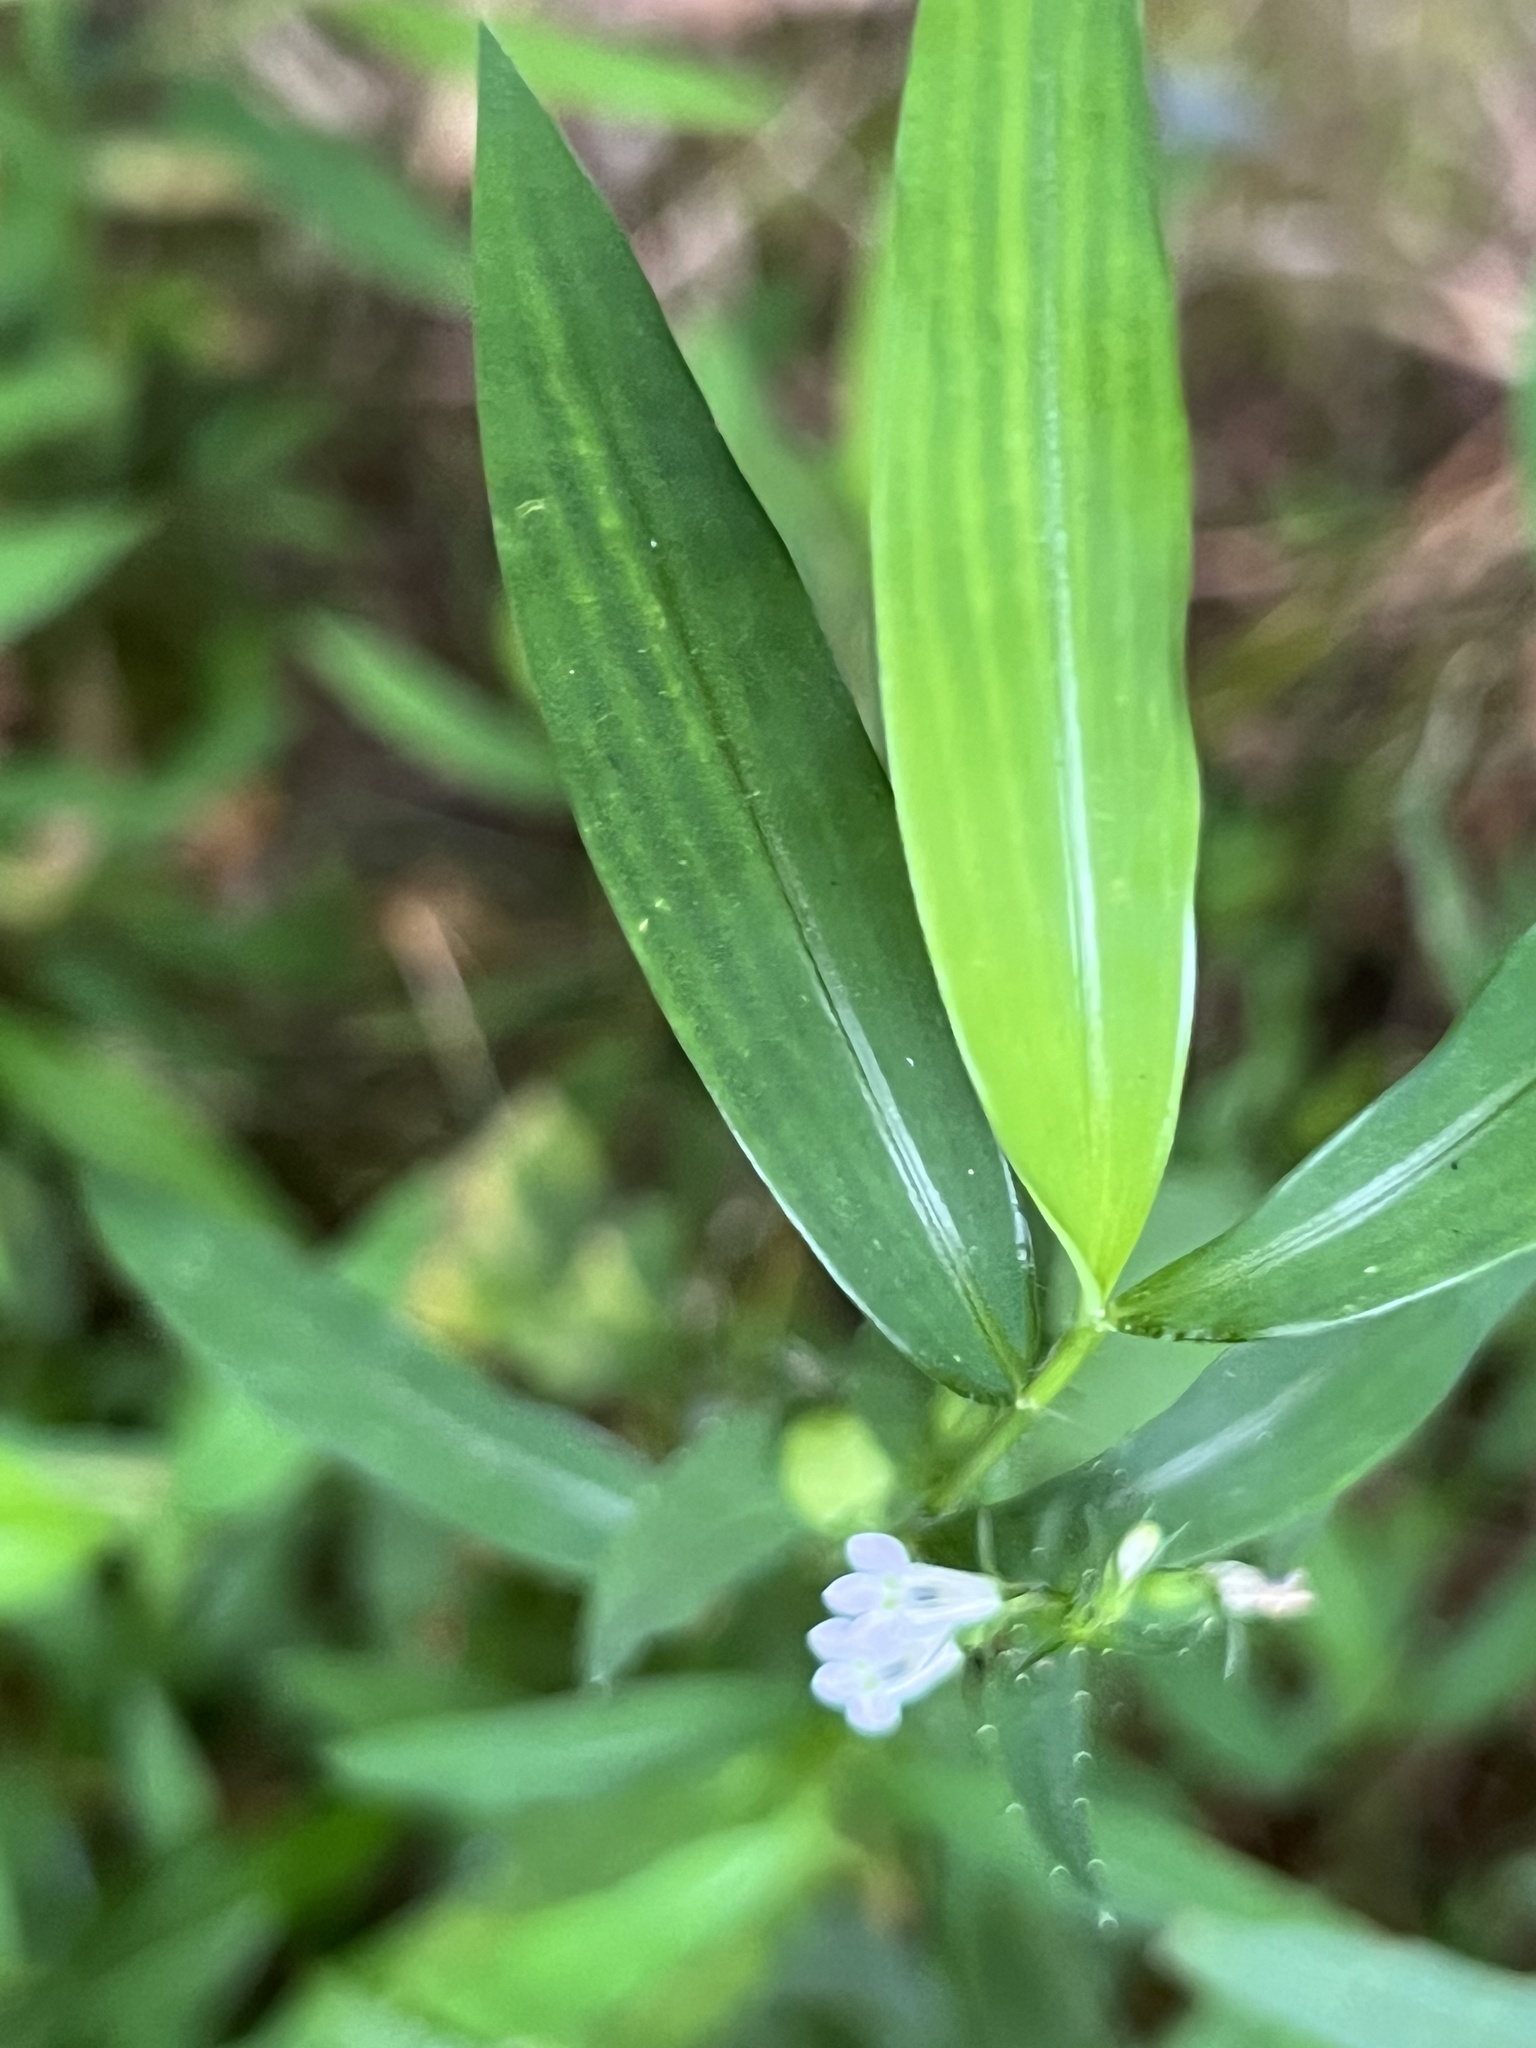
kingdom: Plantae
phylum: Tracheophyta
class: Magnoliopsida
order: Fabales
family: Fabaceae
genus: Hylodesmum
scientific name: Hylodesmum nudiflorum
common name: Bare-stemmed tick-trefoil
